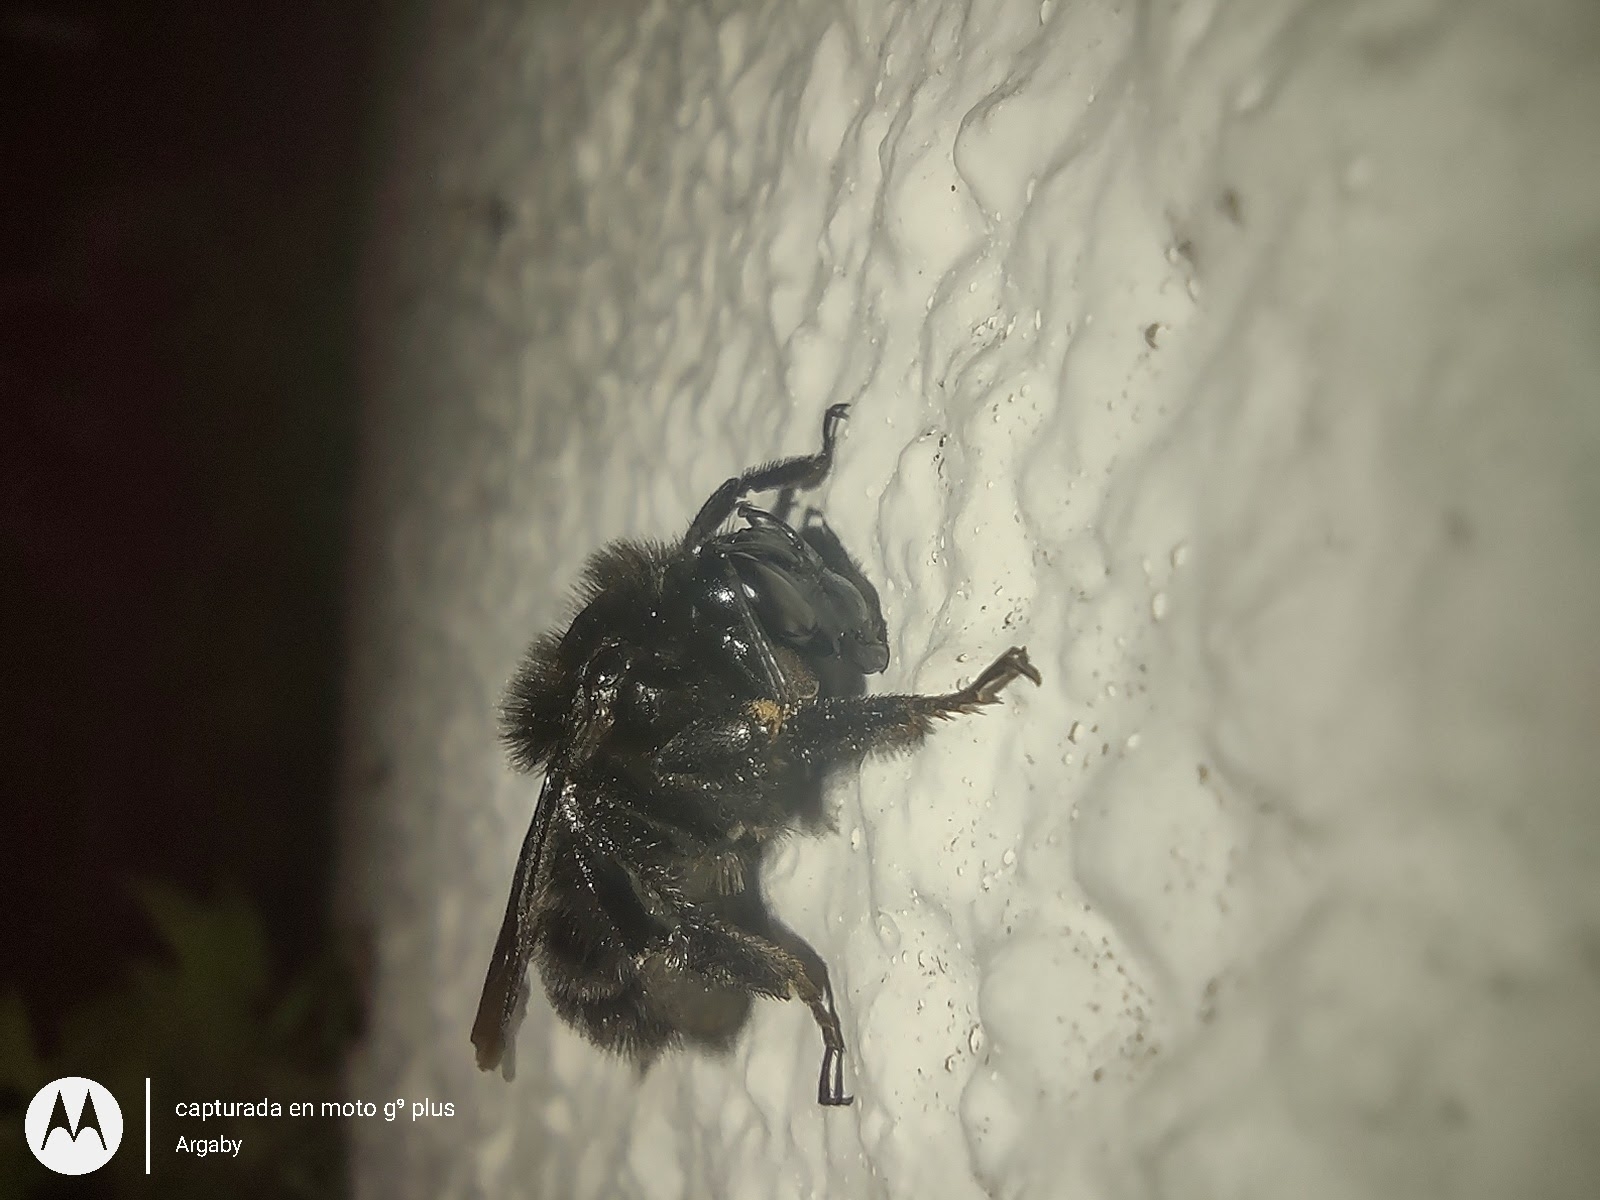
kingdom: Animalia
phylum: Arthropoda
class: Insecta
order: Hymenoptera
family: Apidae
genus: Bombus
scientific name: Bombus pauloensis
